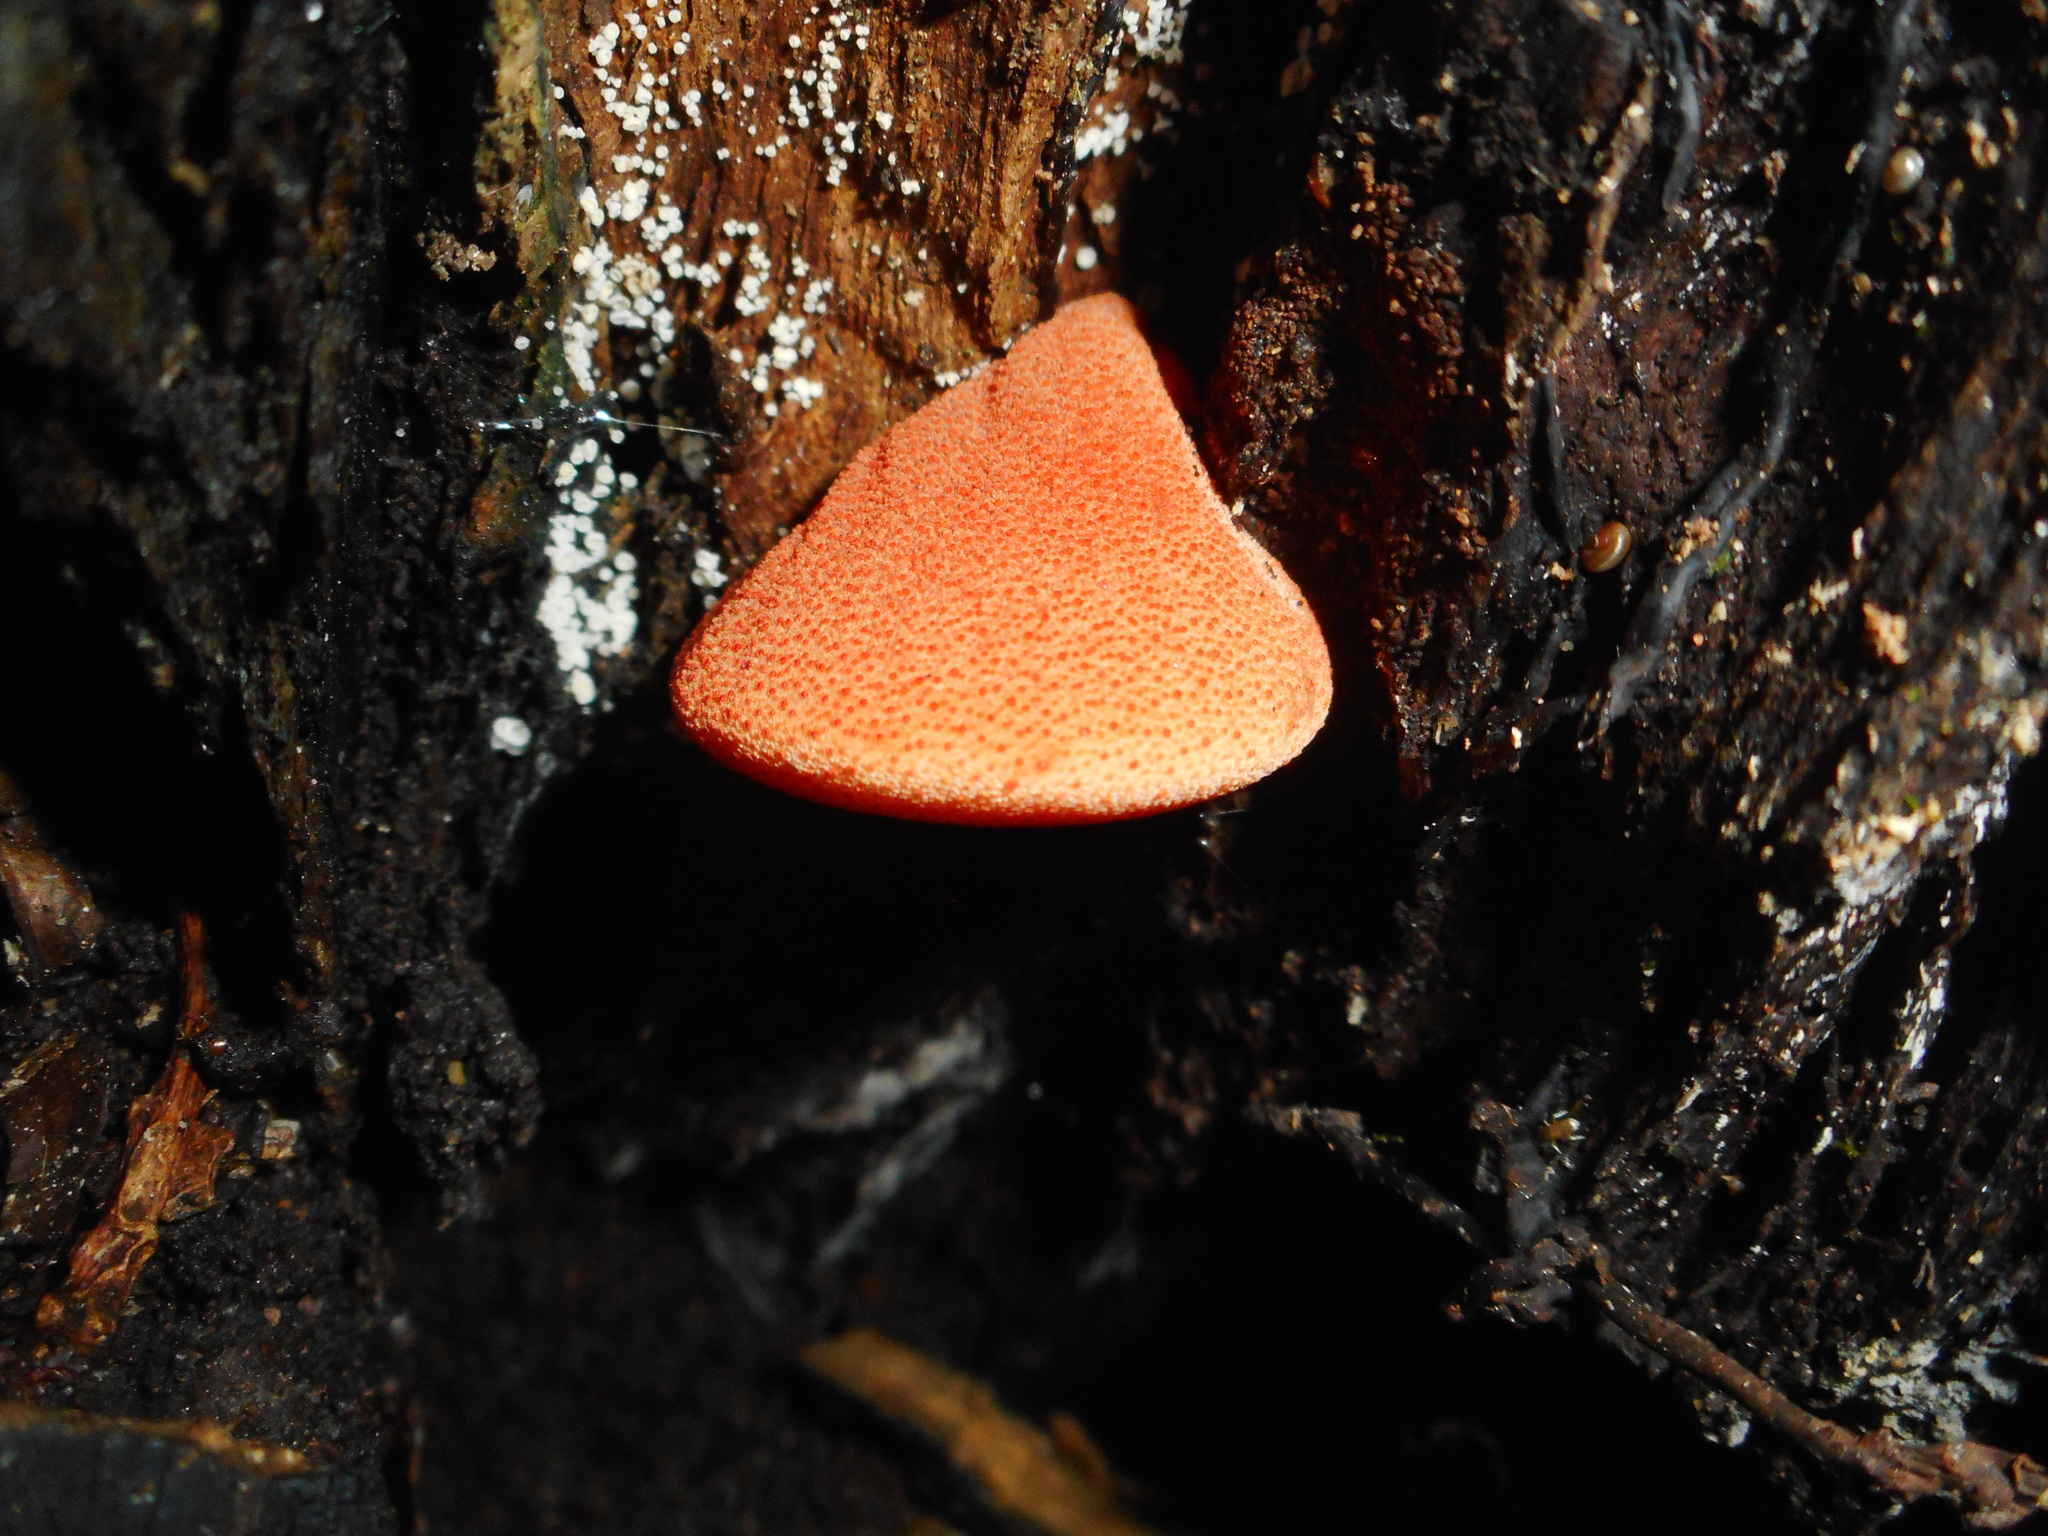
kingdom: Fungi
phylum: Basidiomycota
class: Agaricomycetes
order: Agaricales
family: Fistulinaceae
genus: Fistulina
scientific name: Fistulina hepatica
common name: Beef-steak fungus
